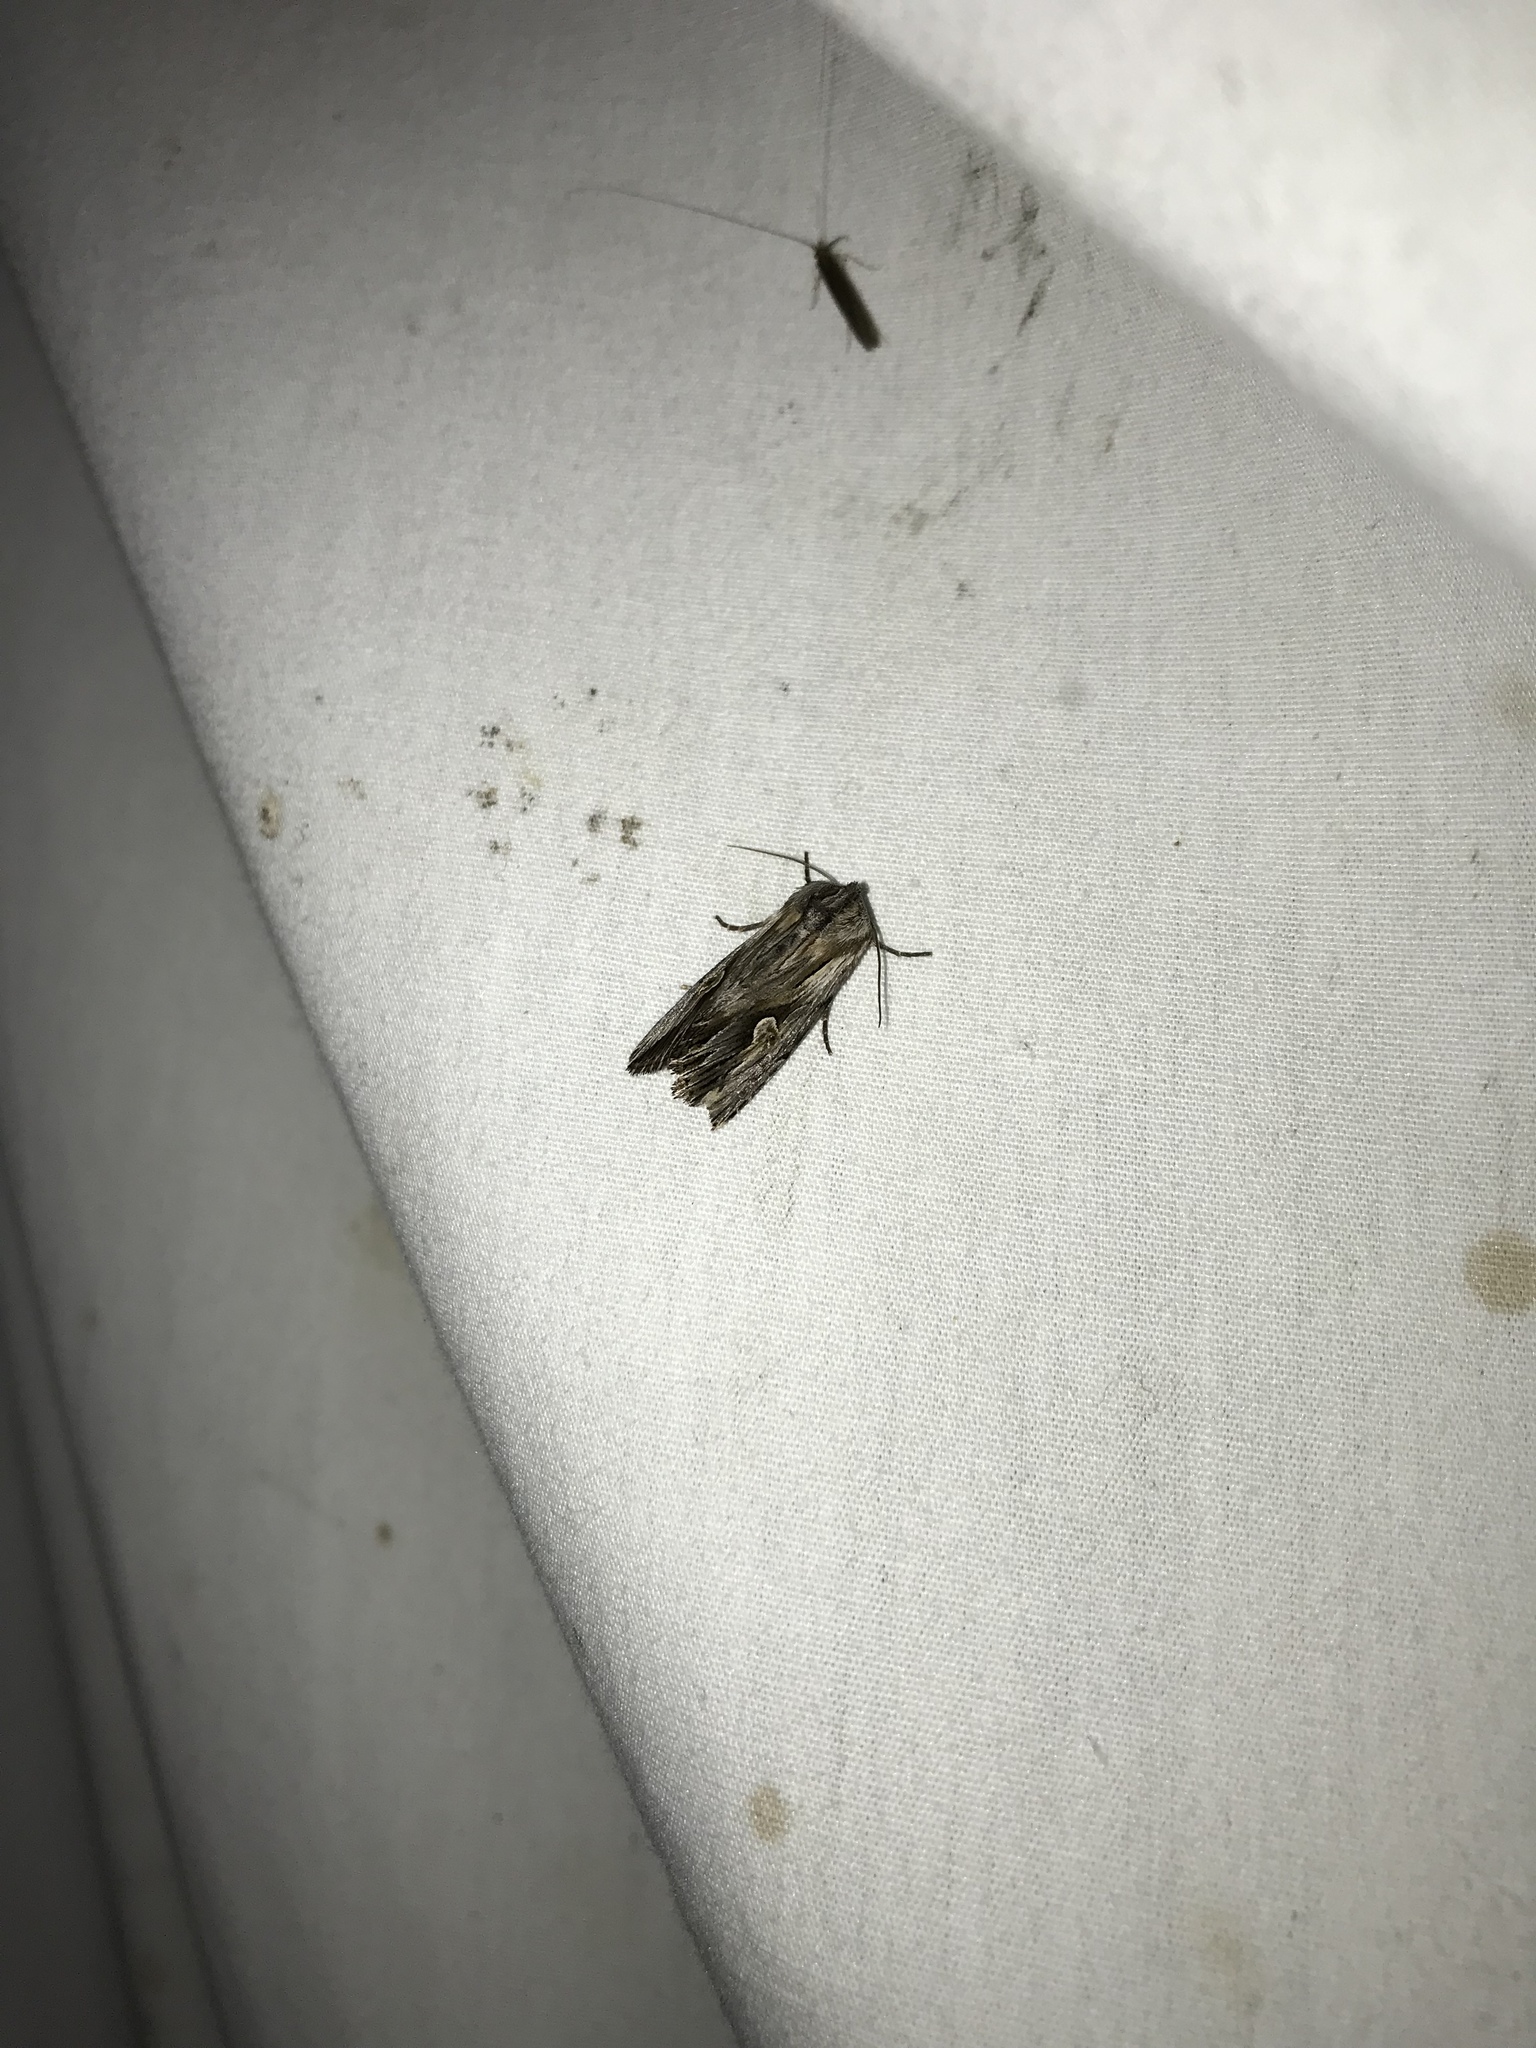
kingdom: Animalia
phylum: Arthropoda
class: Insecta
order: Lepidoptera
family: Noctuidae
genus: Nedra
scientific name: Nedra ramosula
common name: Gray half-spot
